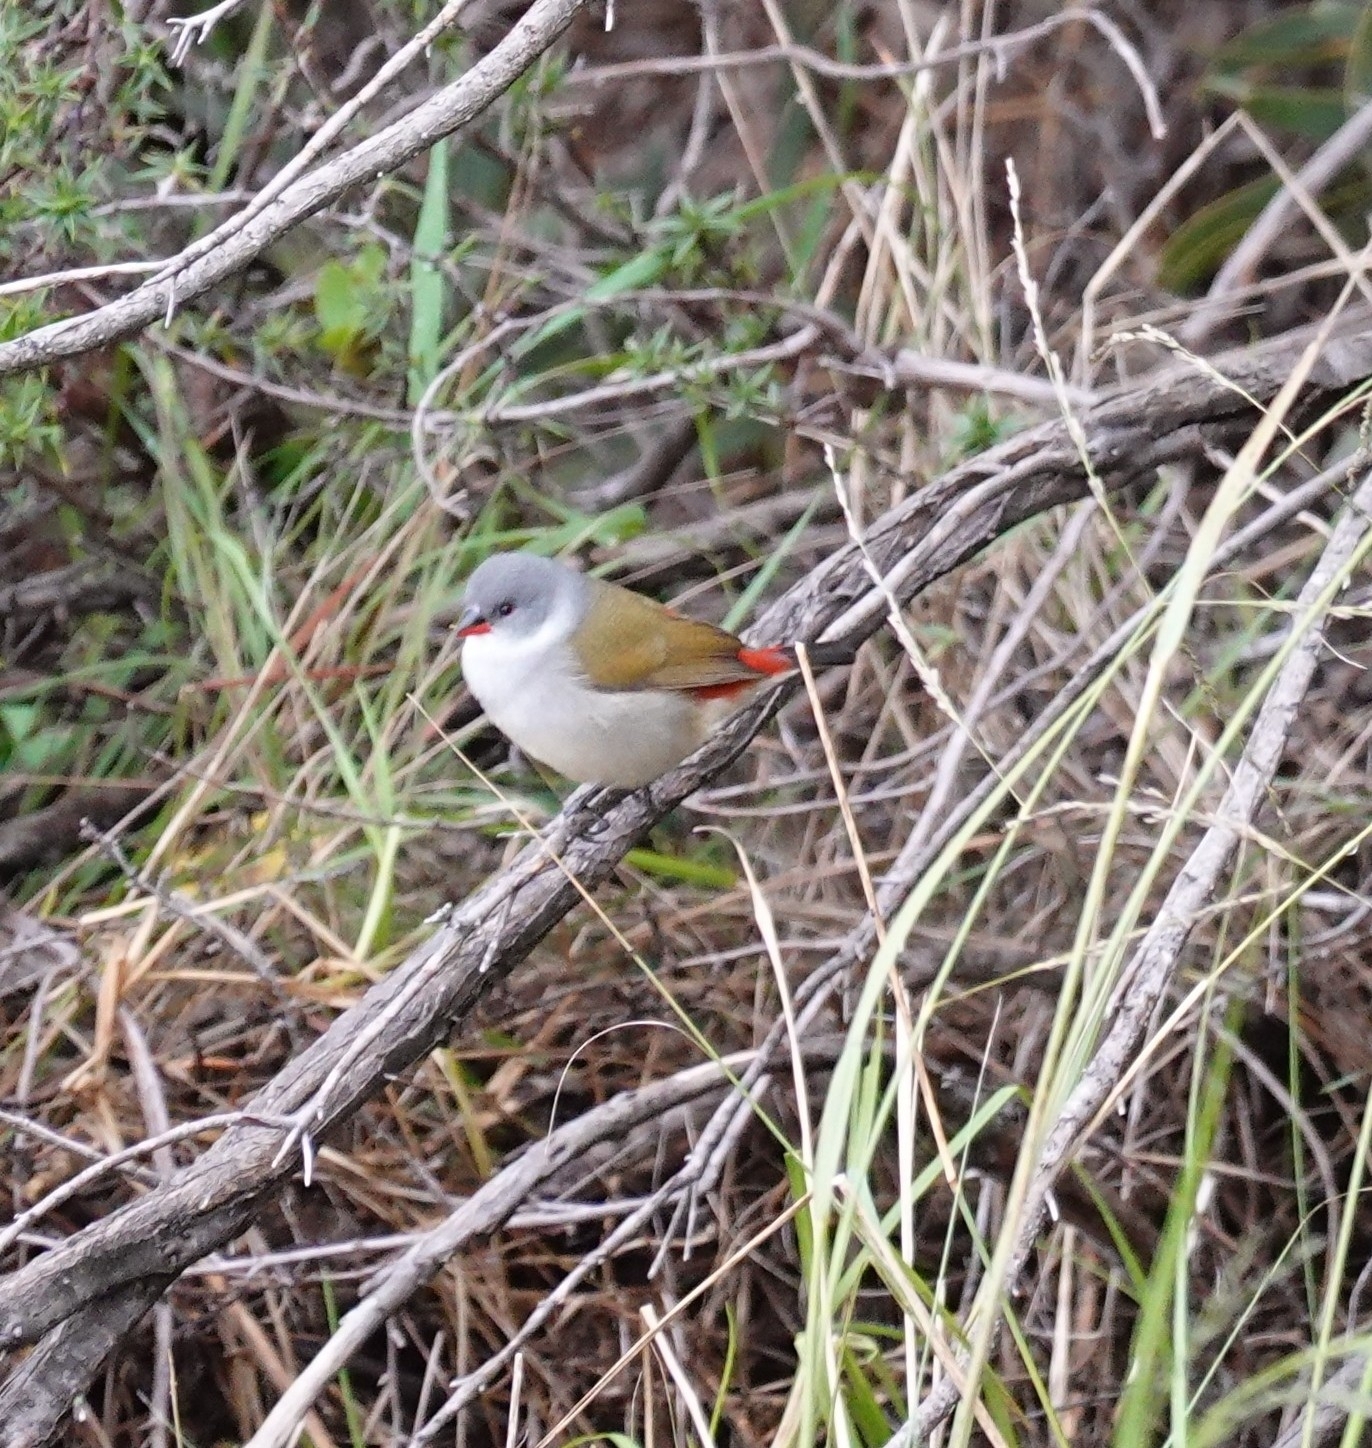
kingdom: Animalia
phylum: Chordata
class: Aves
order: Passeriformes
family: Estrildidae
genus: Coccopygia
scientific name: Coccopygia melanotis
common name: Swee waxbill
